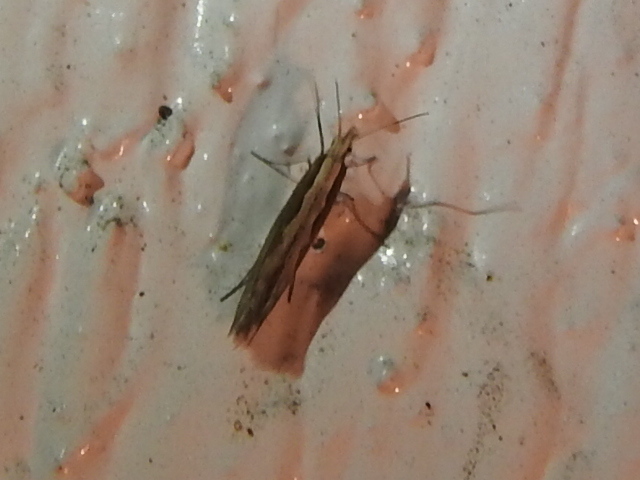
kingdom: Animalia
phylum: Arthropoda
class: Insecta
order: Lepidoptera
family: Plutellidae
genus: Plutella
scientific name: Plutella xylostella
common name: Diamond-back moth
